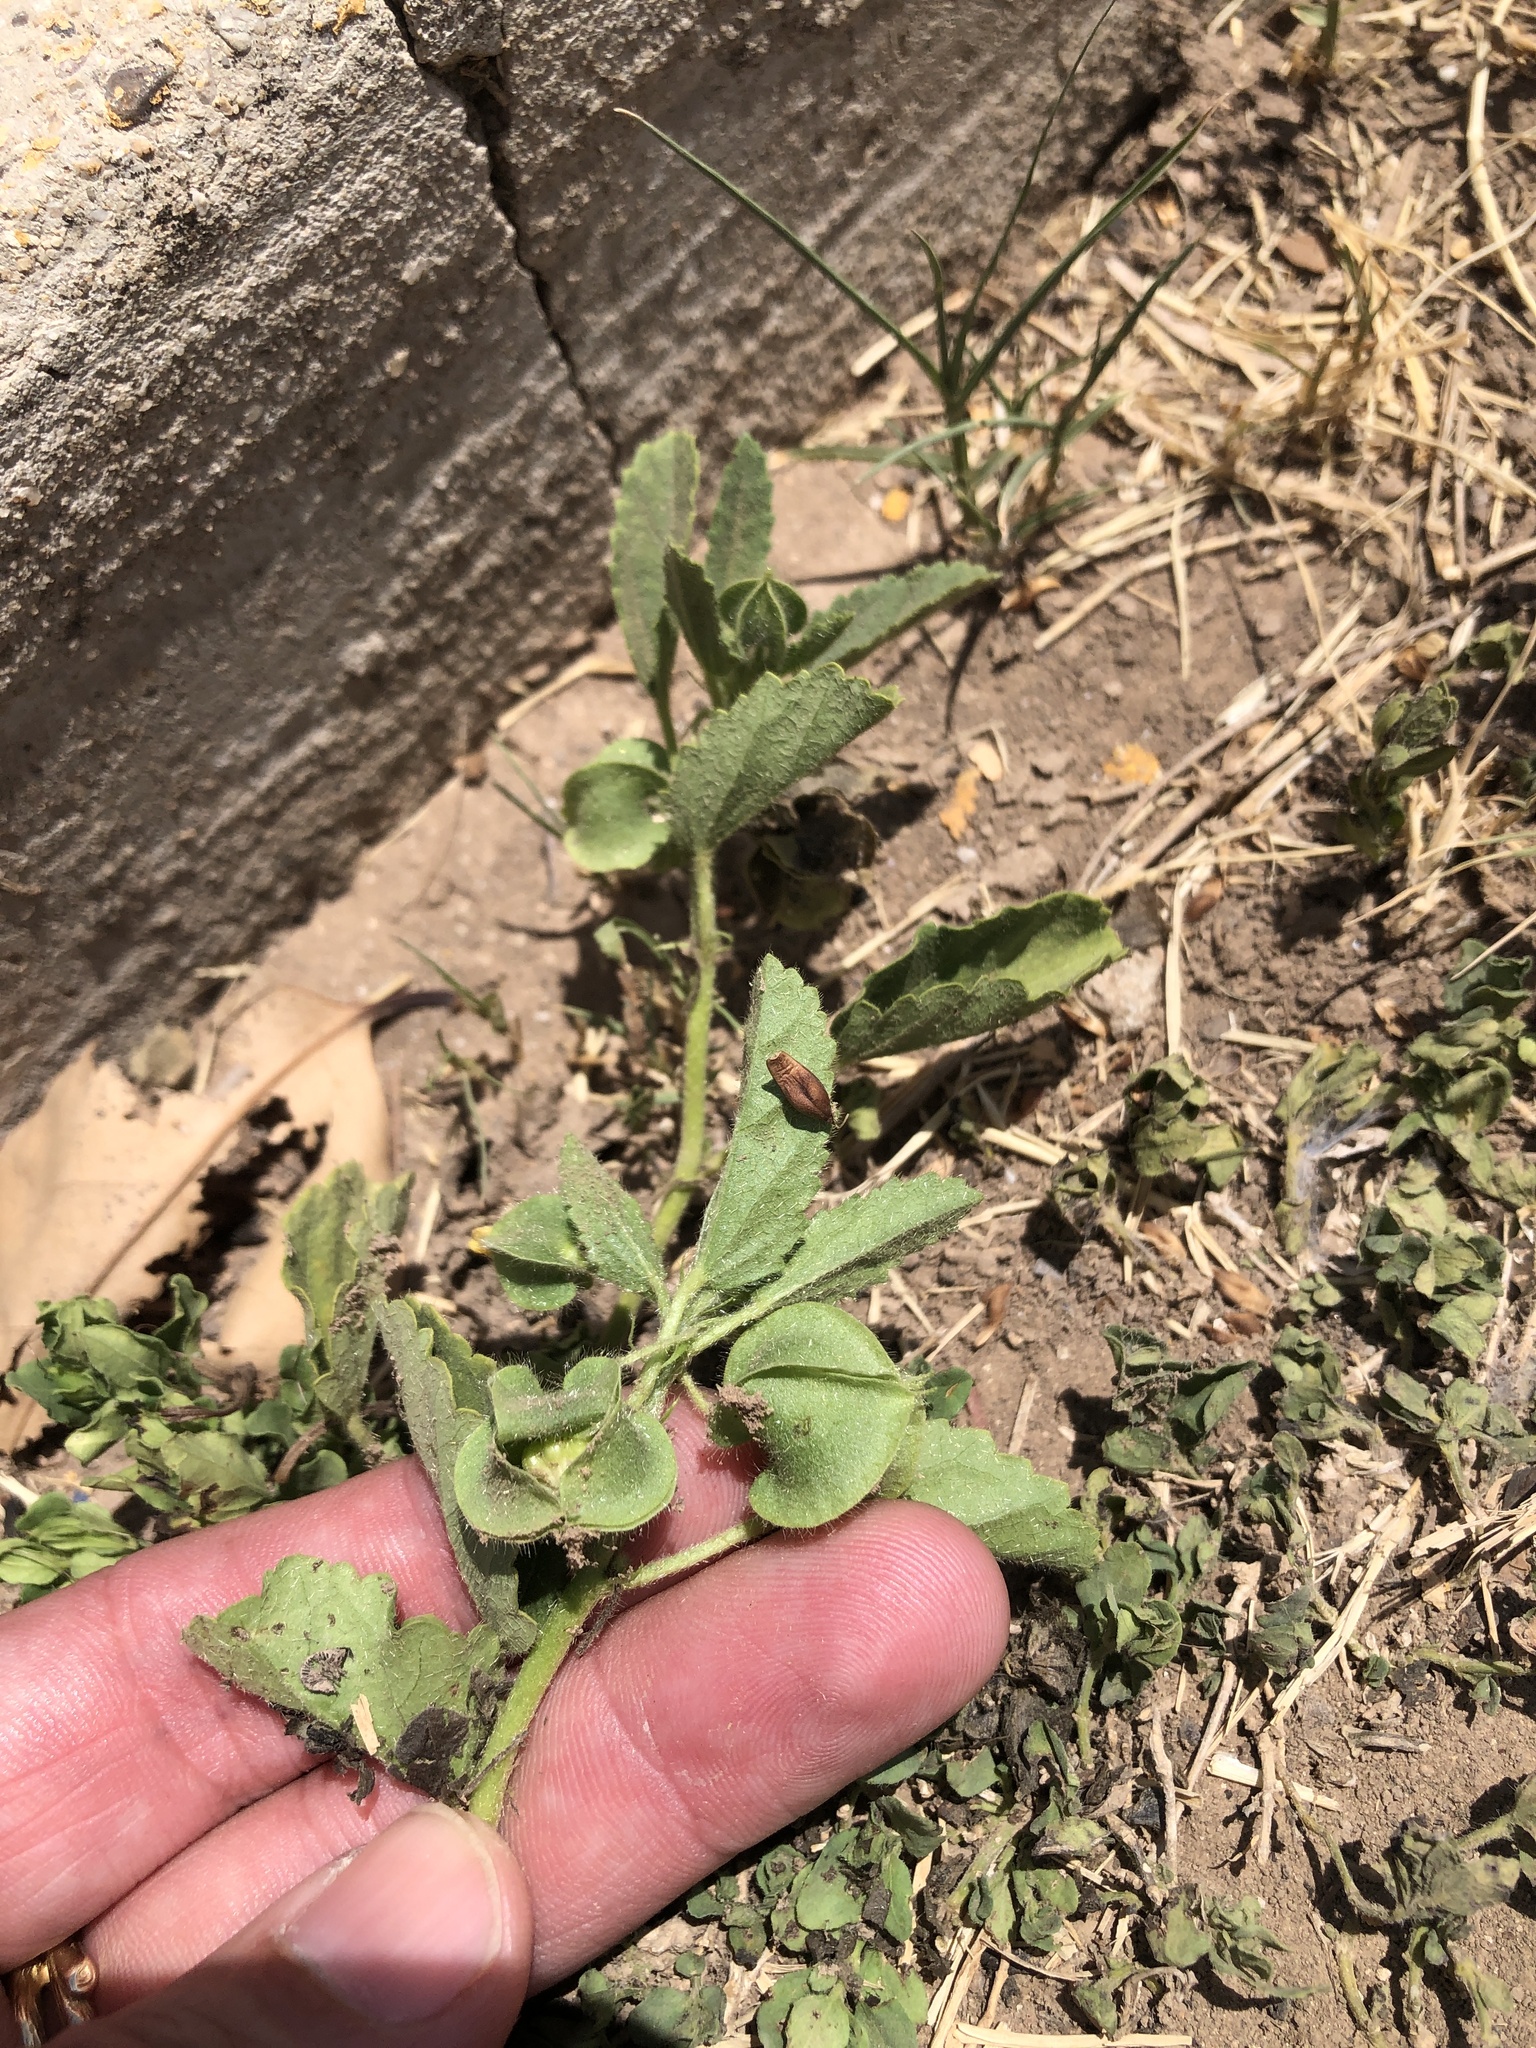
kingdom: Plantae
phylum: Tracheophyta
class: Magnoliopsida
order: Malvales
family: Malvaceae
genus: Rhynchosida
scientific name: Rhynchosida physocalyx
